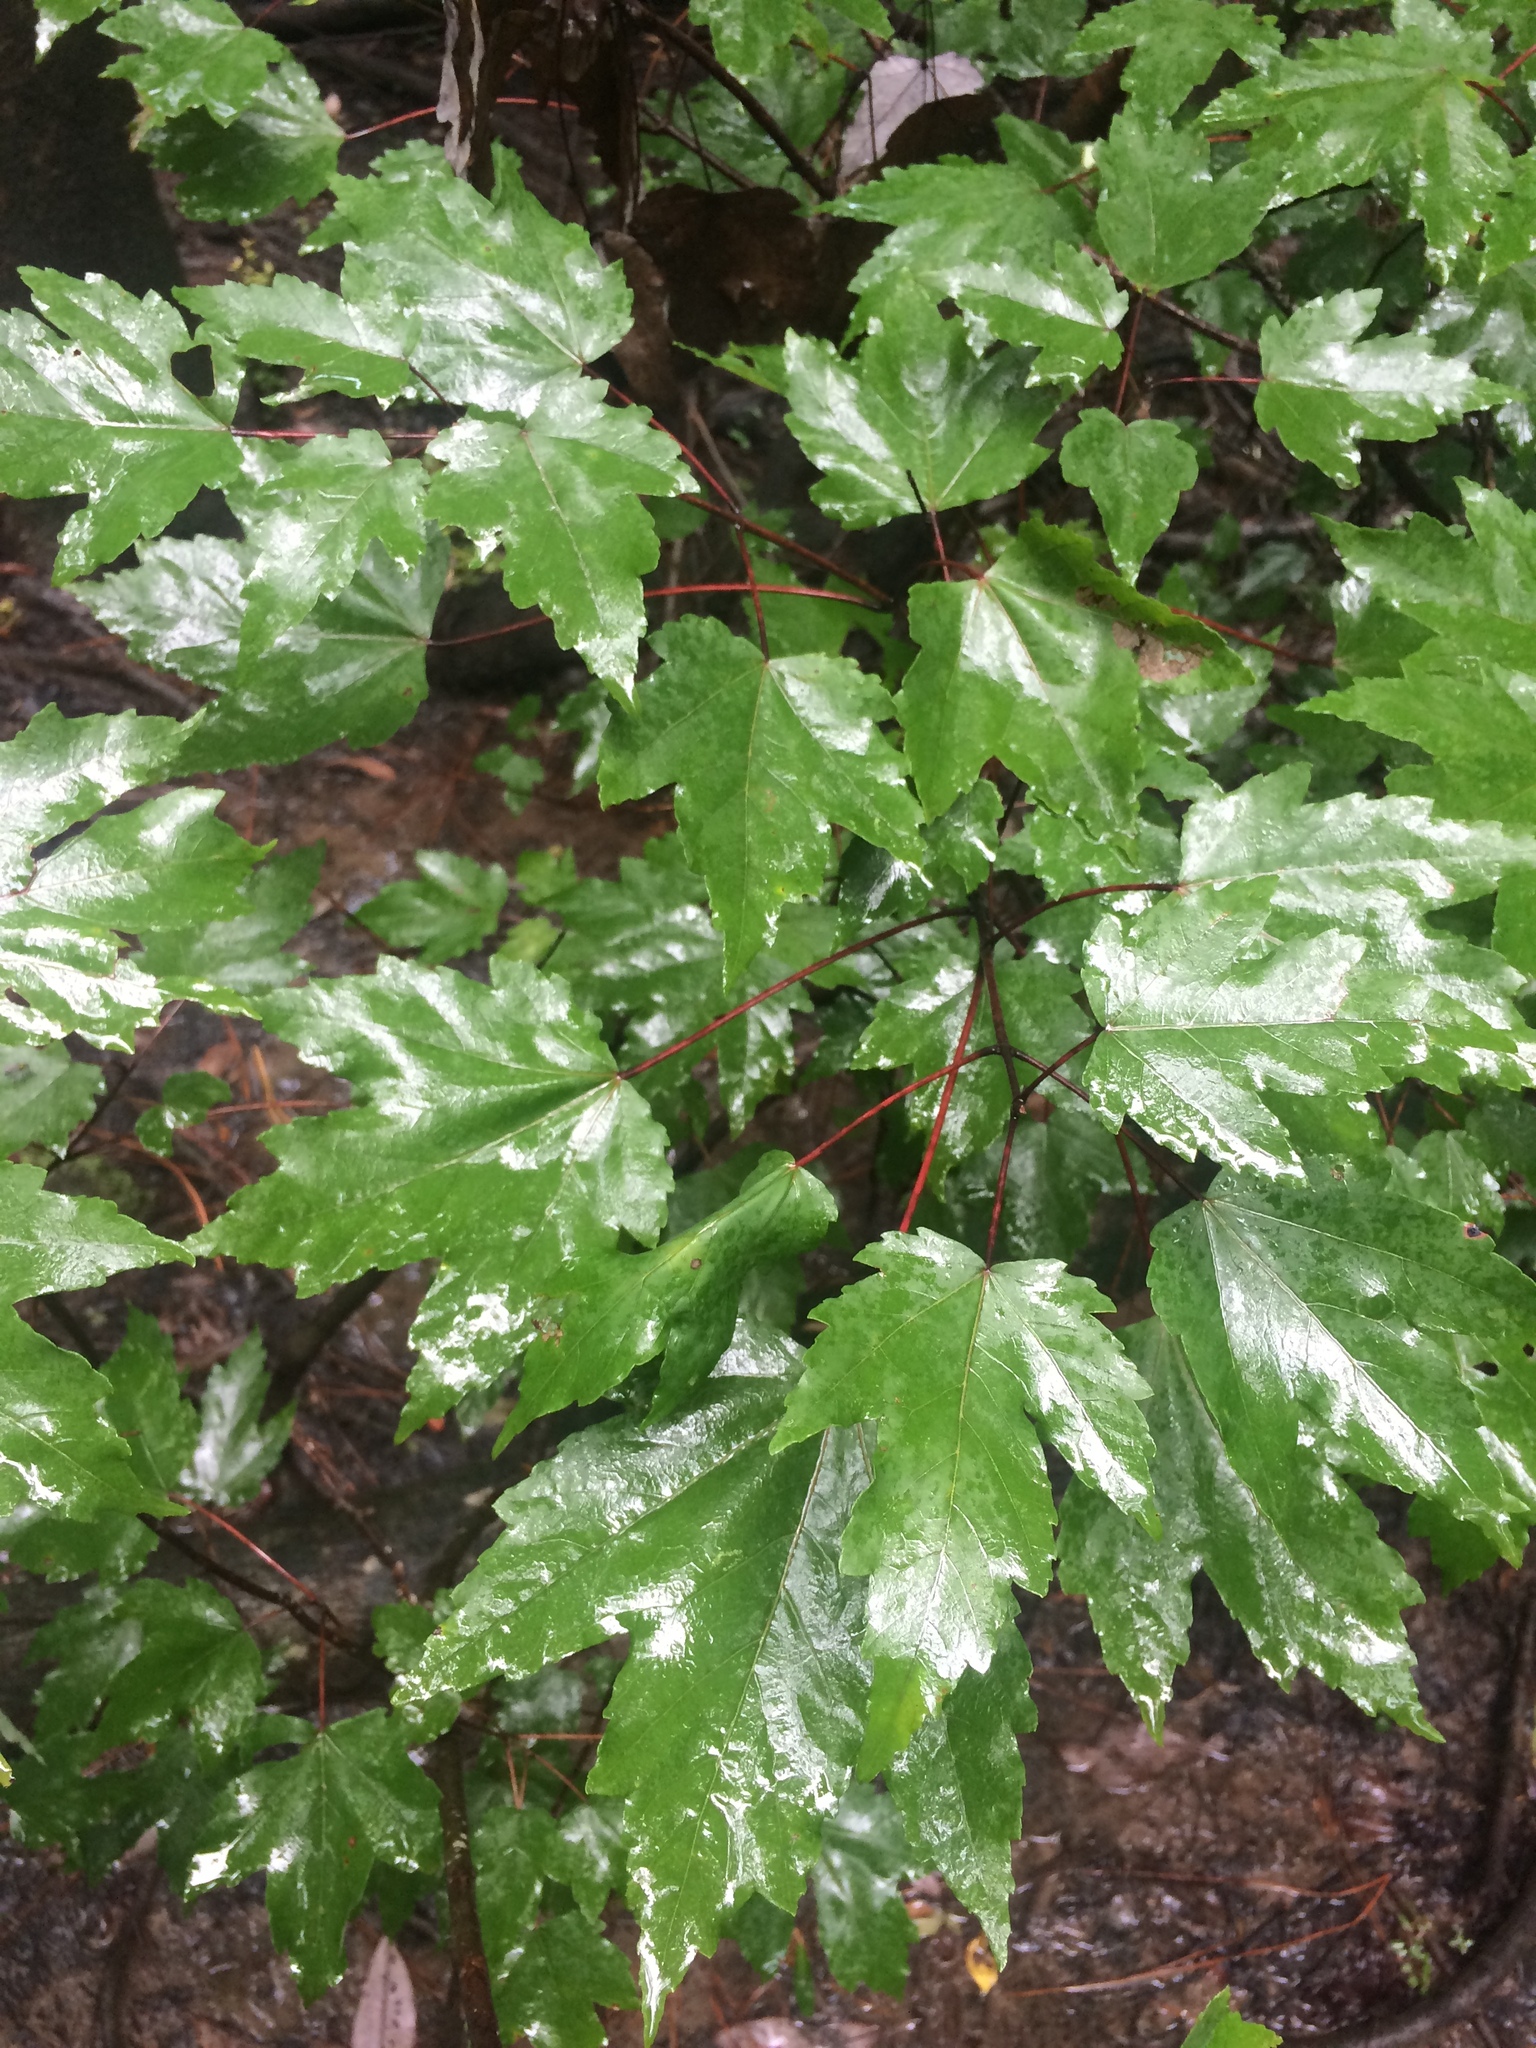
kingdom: Plantae
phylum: Tracheophyta
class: Magnoliopsida
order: Sapindales
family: Sapindaceae
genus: Acer
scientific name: Acer rubrum
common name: Red maple
